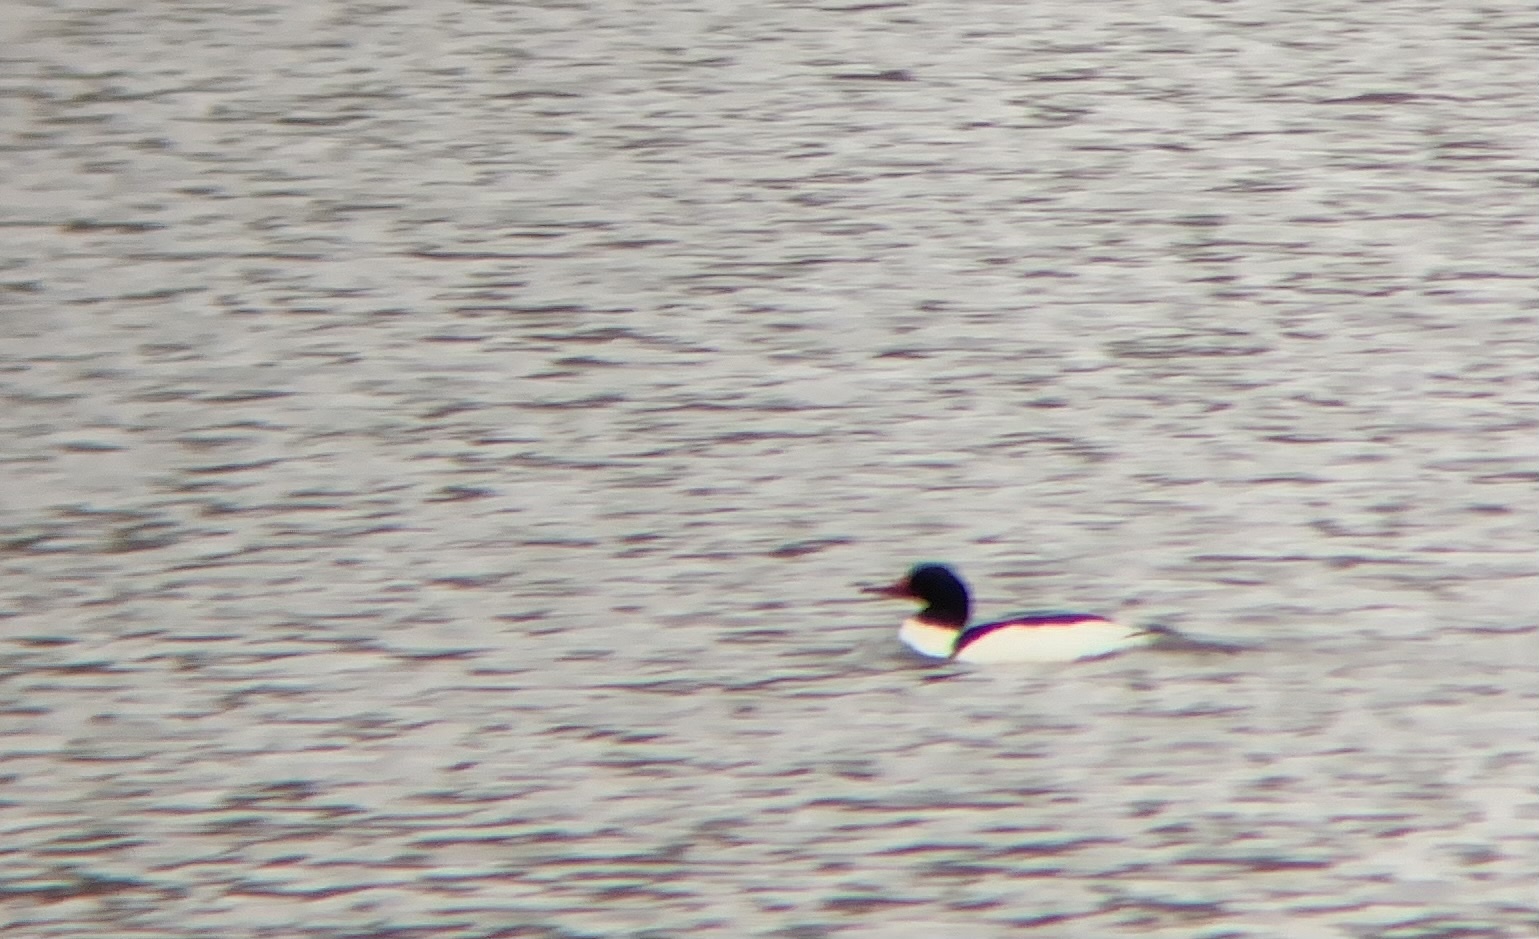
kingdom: Animalia
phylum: Chordata
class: Aves
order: Anseriformes
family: Anatidae
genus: Mergus
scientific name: Mergus merganser
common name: Common merganser
